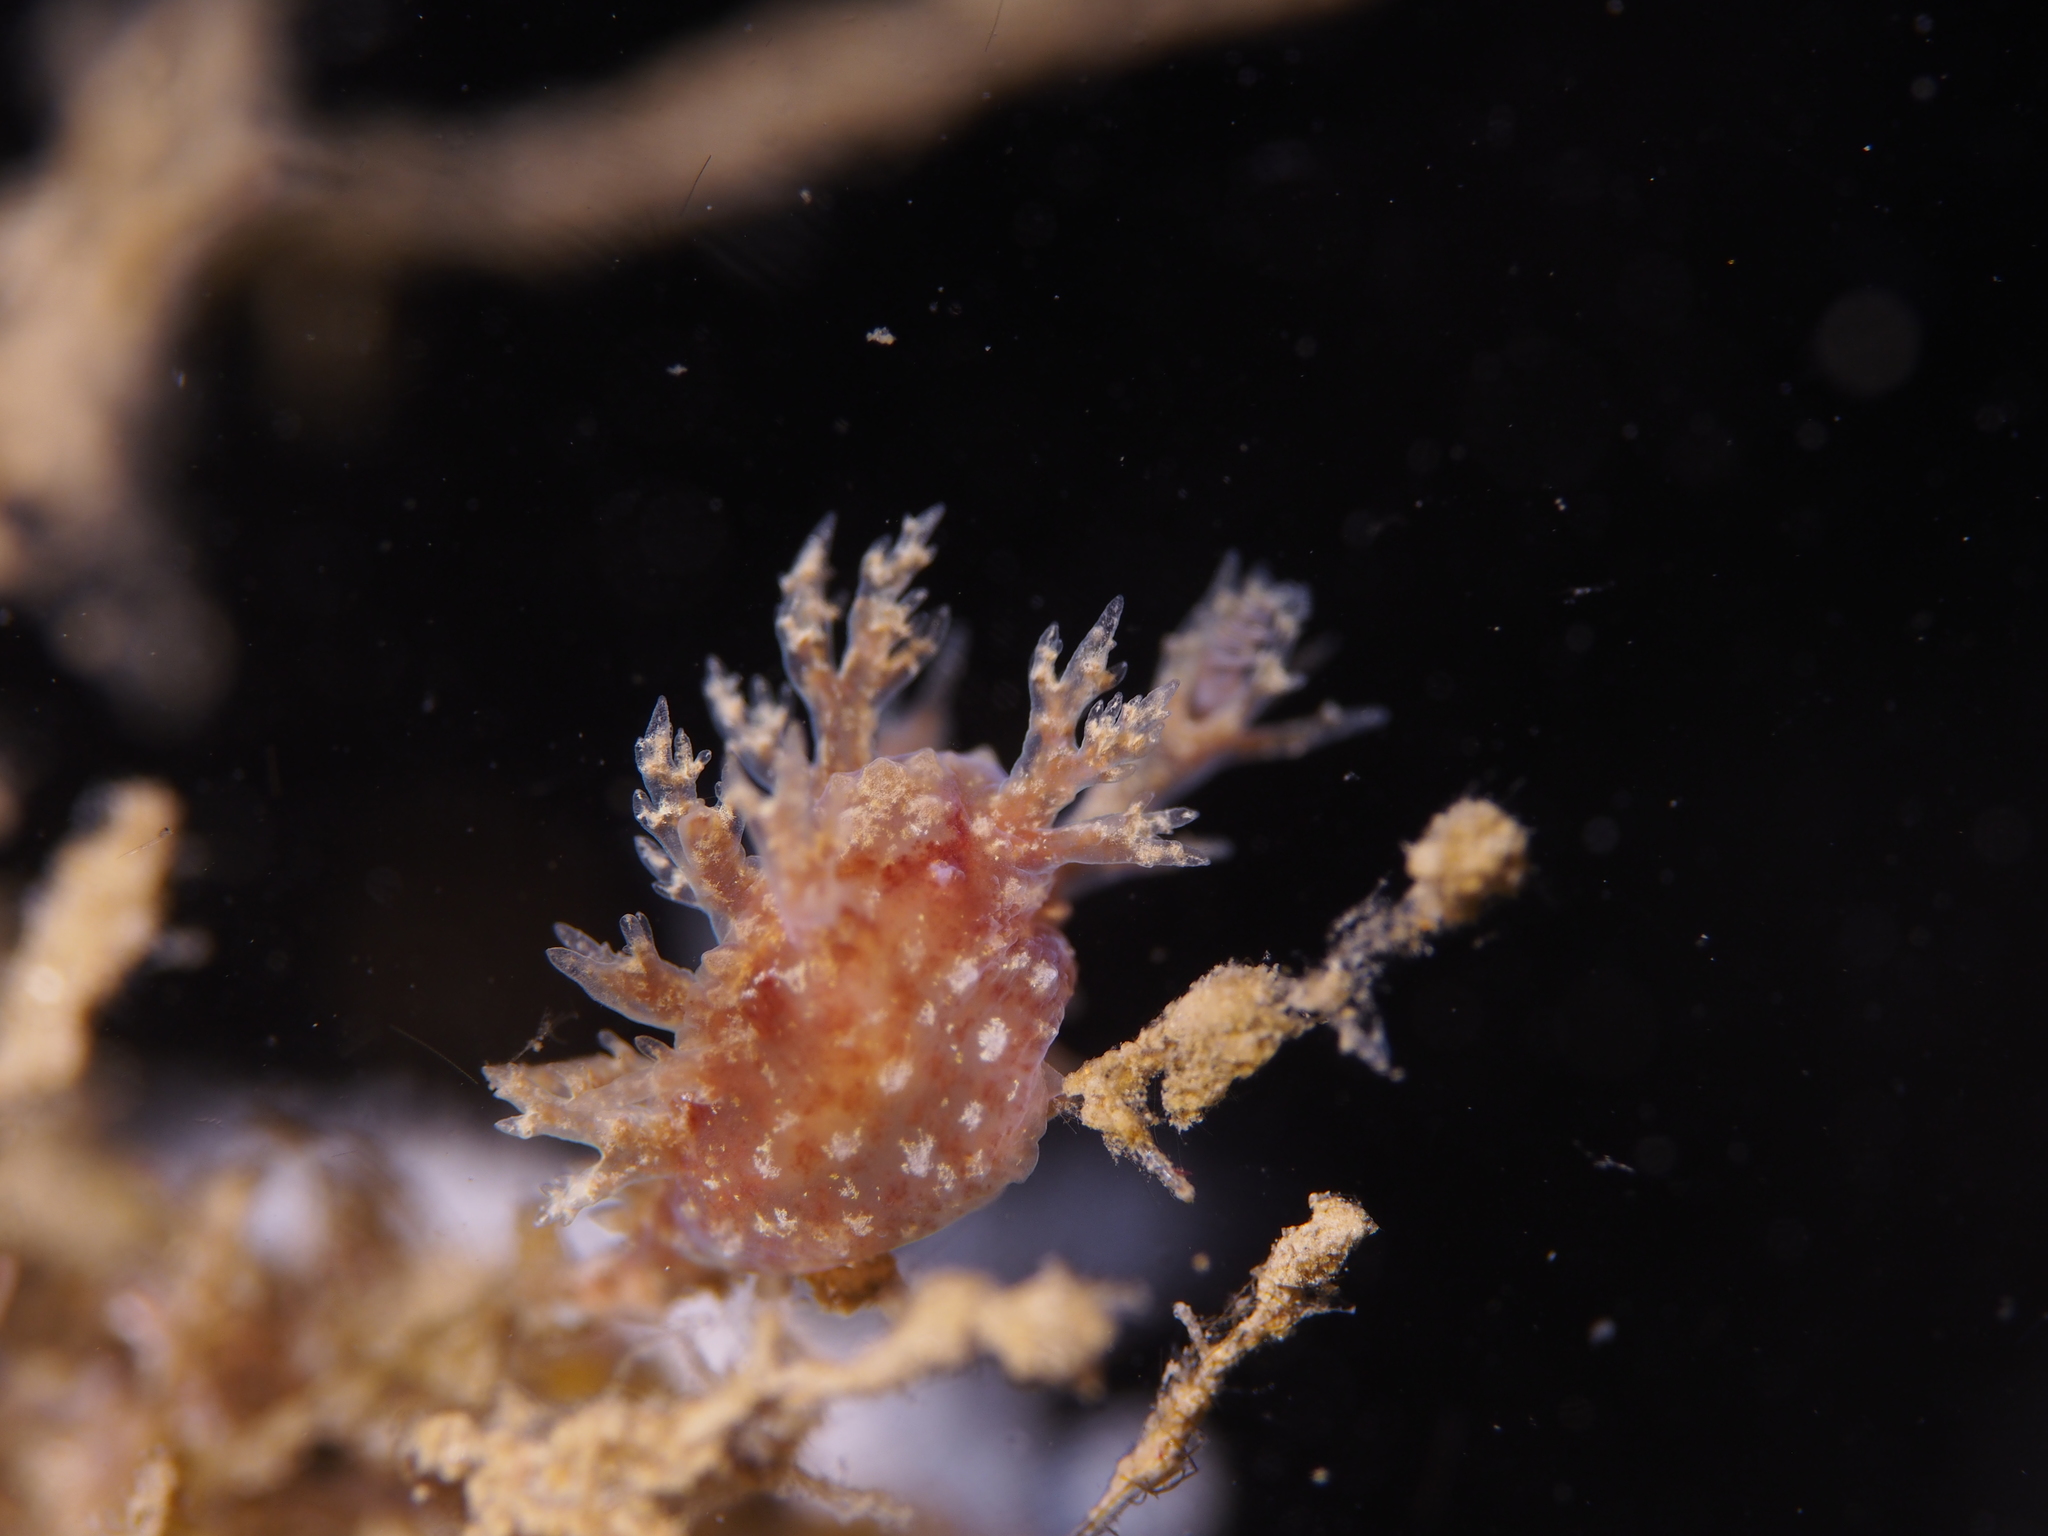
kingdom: Animalia
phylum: Mollusca
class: Gastropoda
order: Nudibranchia
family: Dendronotidae
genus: Dendronotus
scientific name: Dendronotus frondosus
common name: Bushy-backed nudibranch
